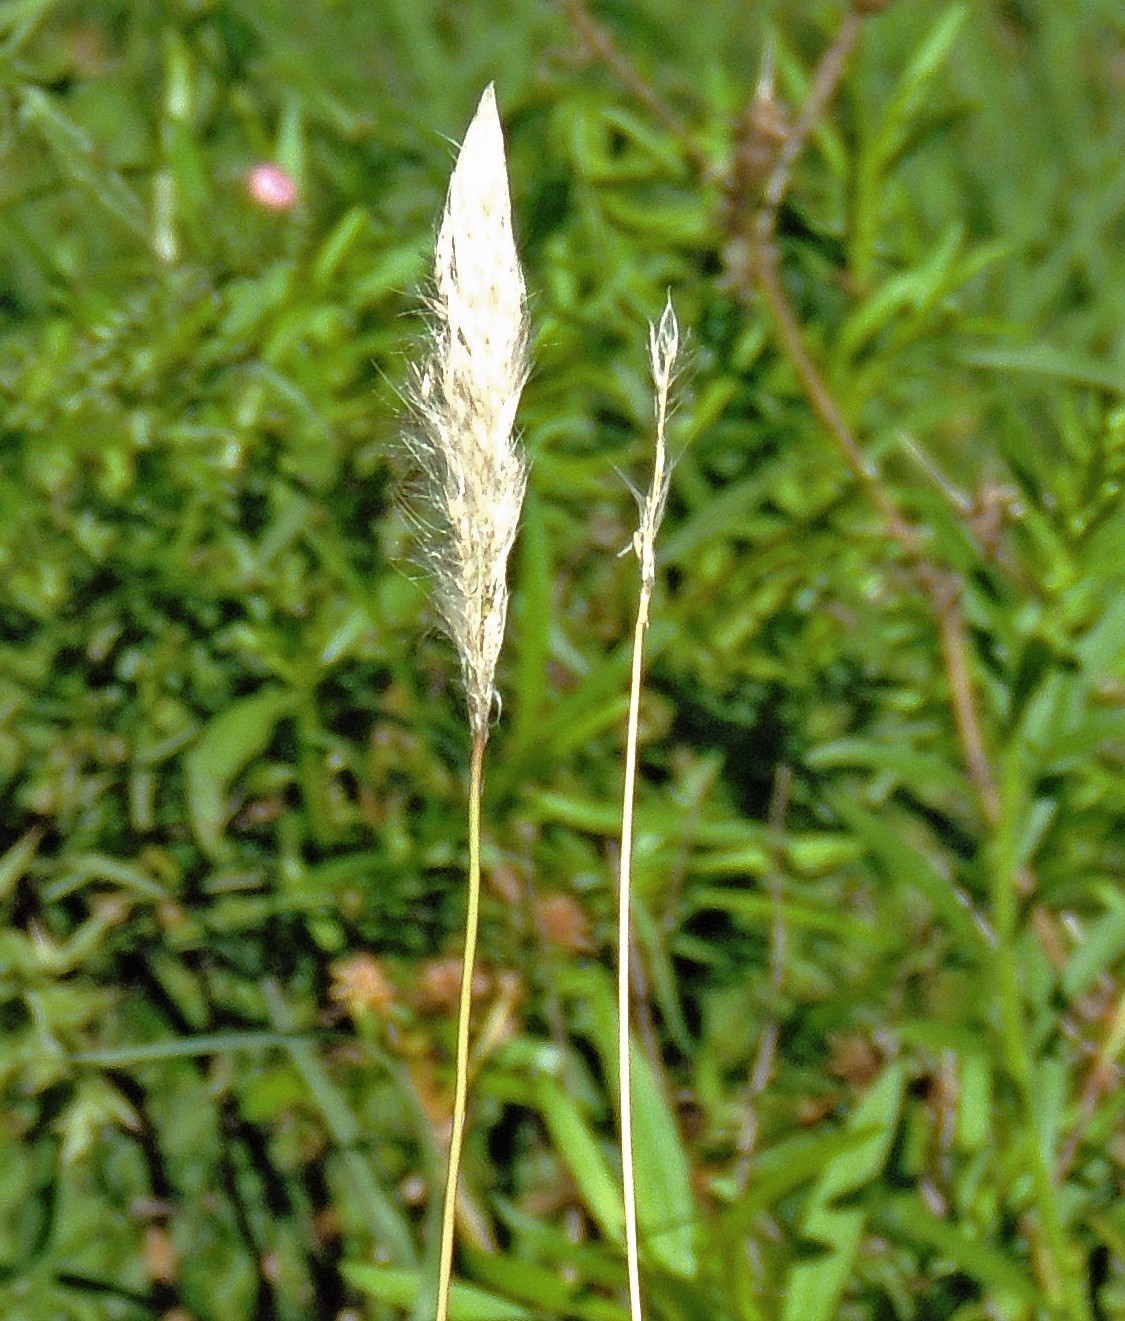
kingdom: Plantae
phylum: Tracheophyta
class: Liliopsida
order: Poales
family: Poaceae
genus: Bothriochloa
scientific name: Bothriochloa laguroides
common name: Silver bluestem
